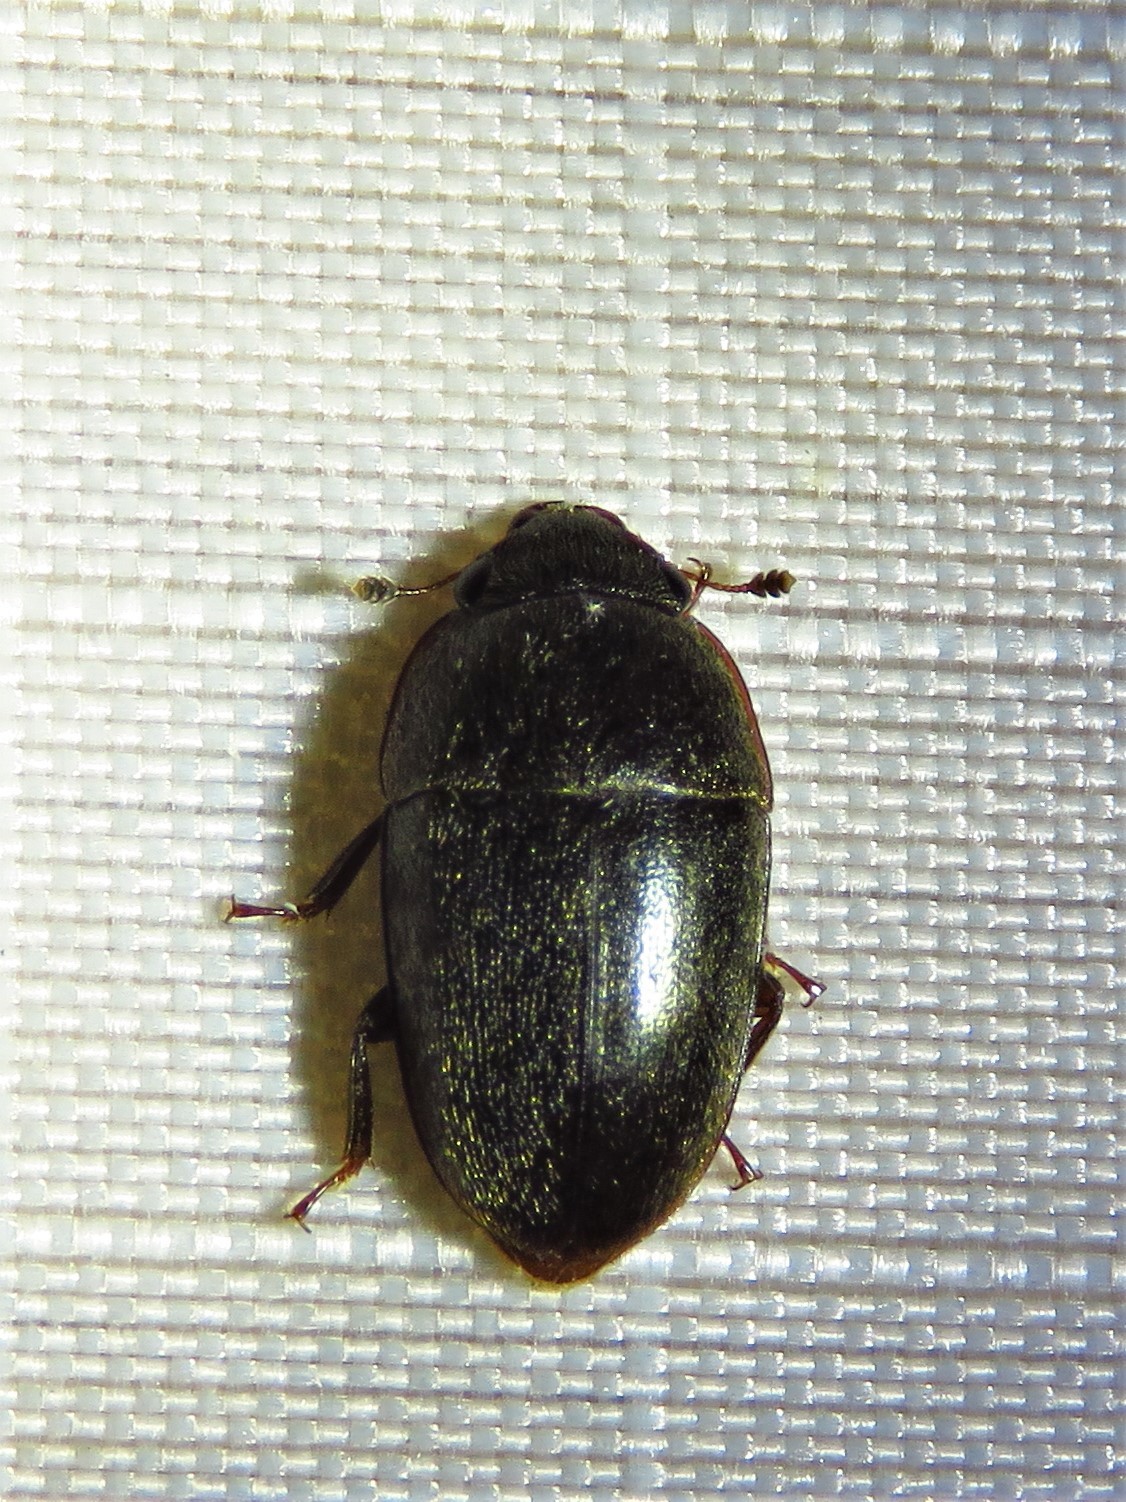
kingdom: Animalia
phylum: Arthropoda
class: Insecta
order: Coleoptera
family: Nitidulidae
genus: Cryptarcha
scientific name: Cryptarcha ampla
